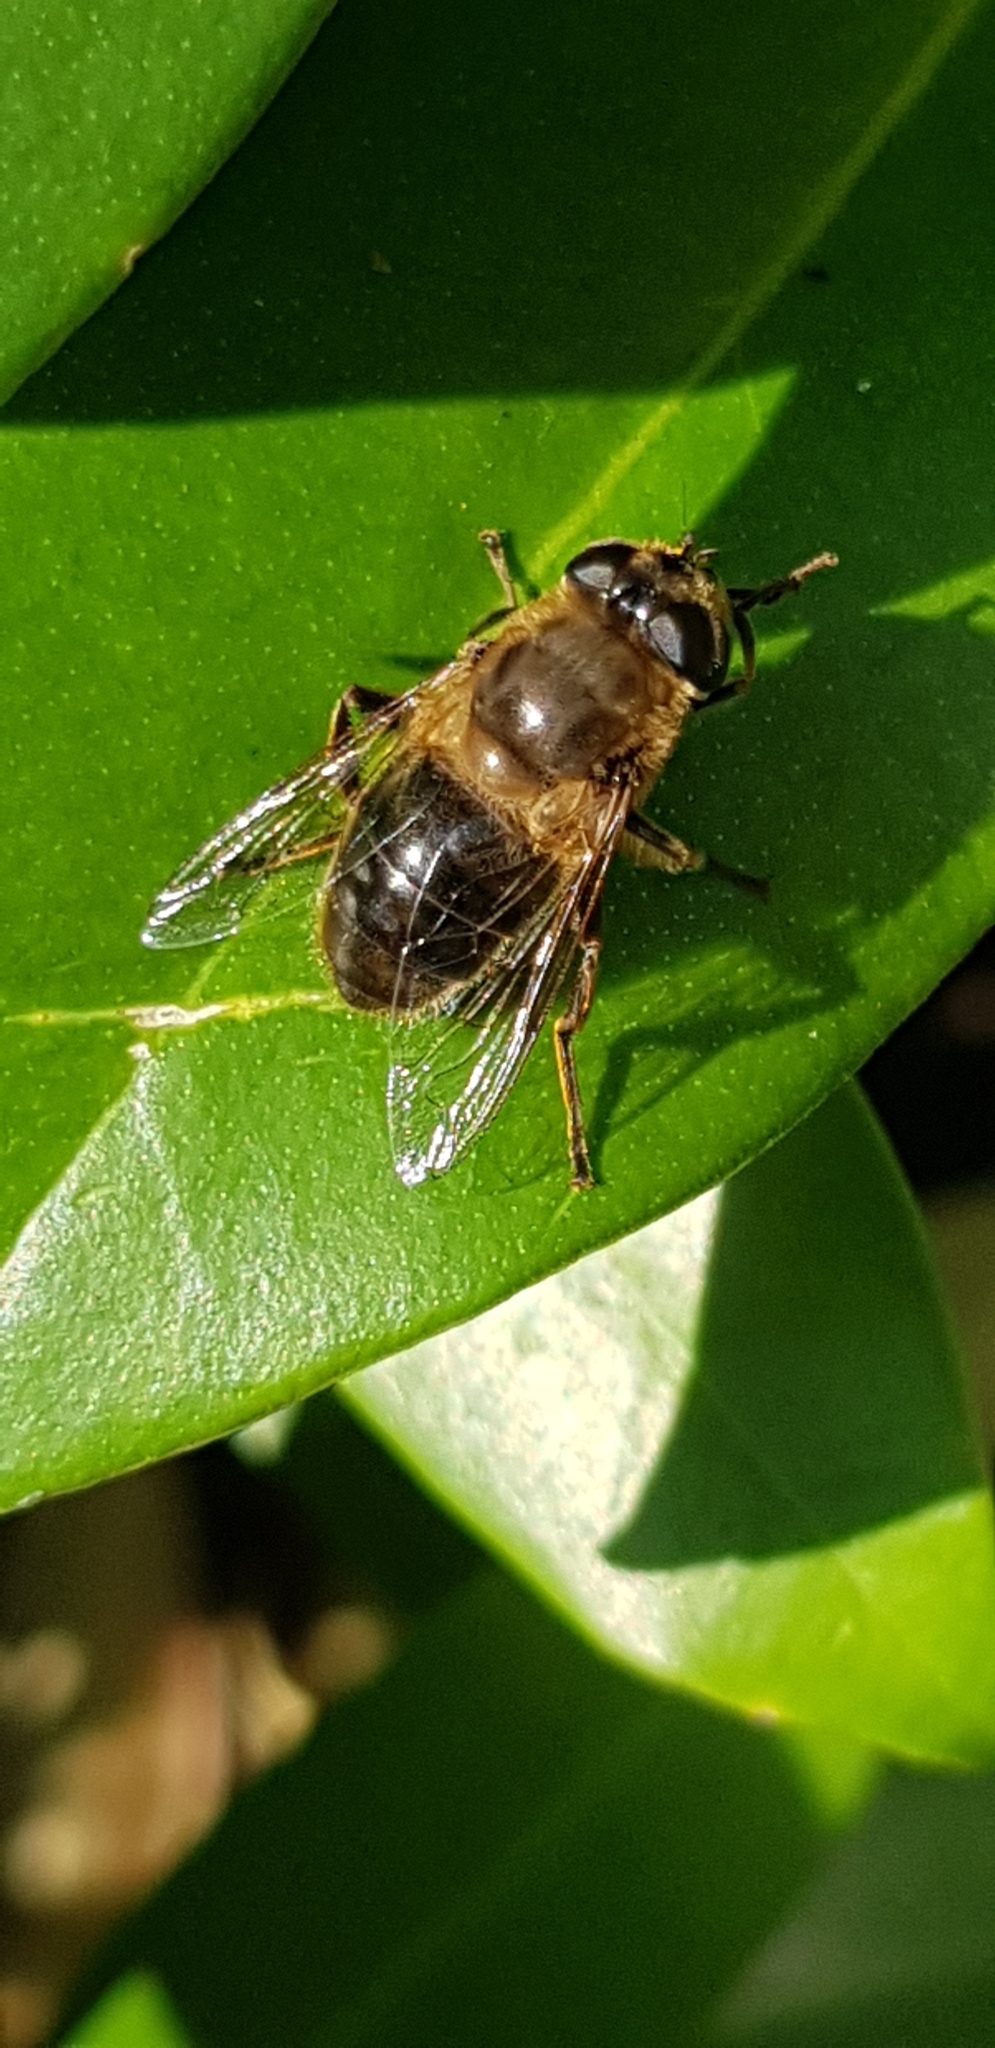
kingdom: Animalia
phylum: Arthropoda
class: Insecta
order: Diptera
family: Syrphidae
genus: Eristalis
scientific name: Eristalis tenax
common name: Drone fly
